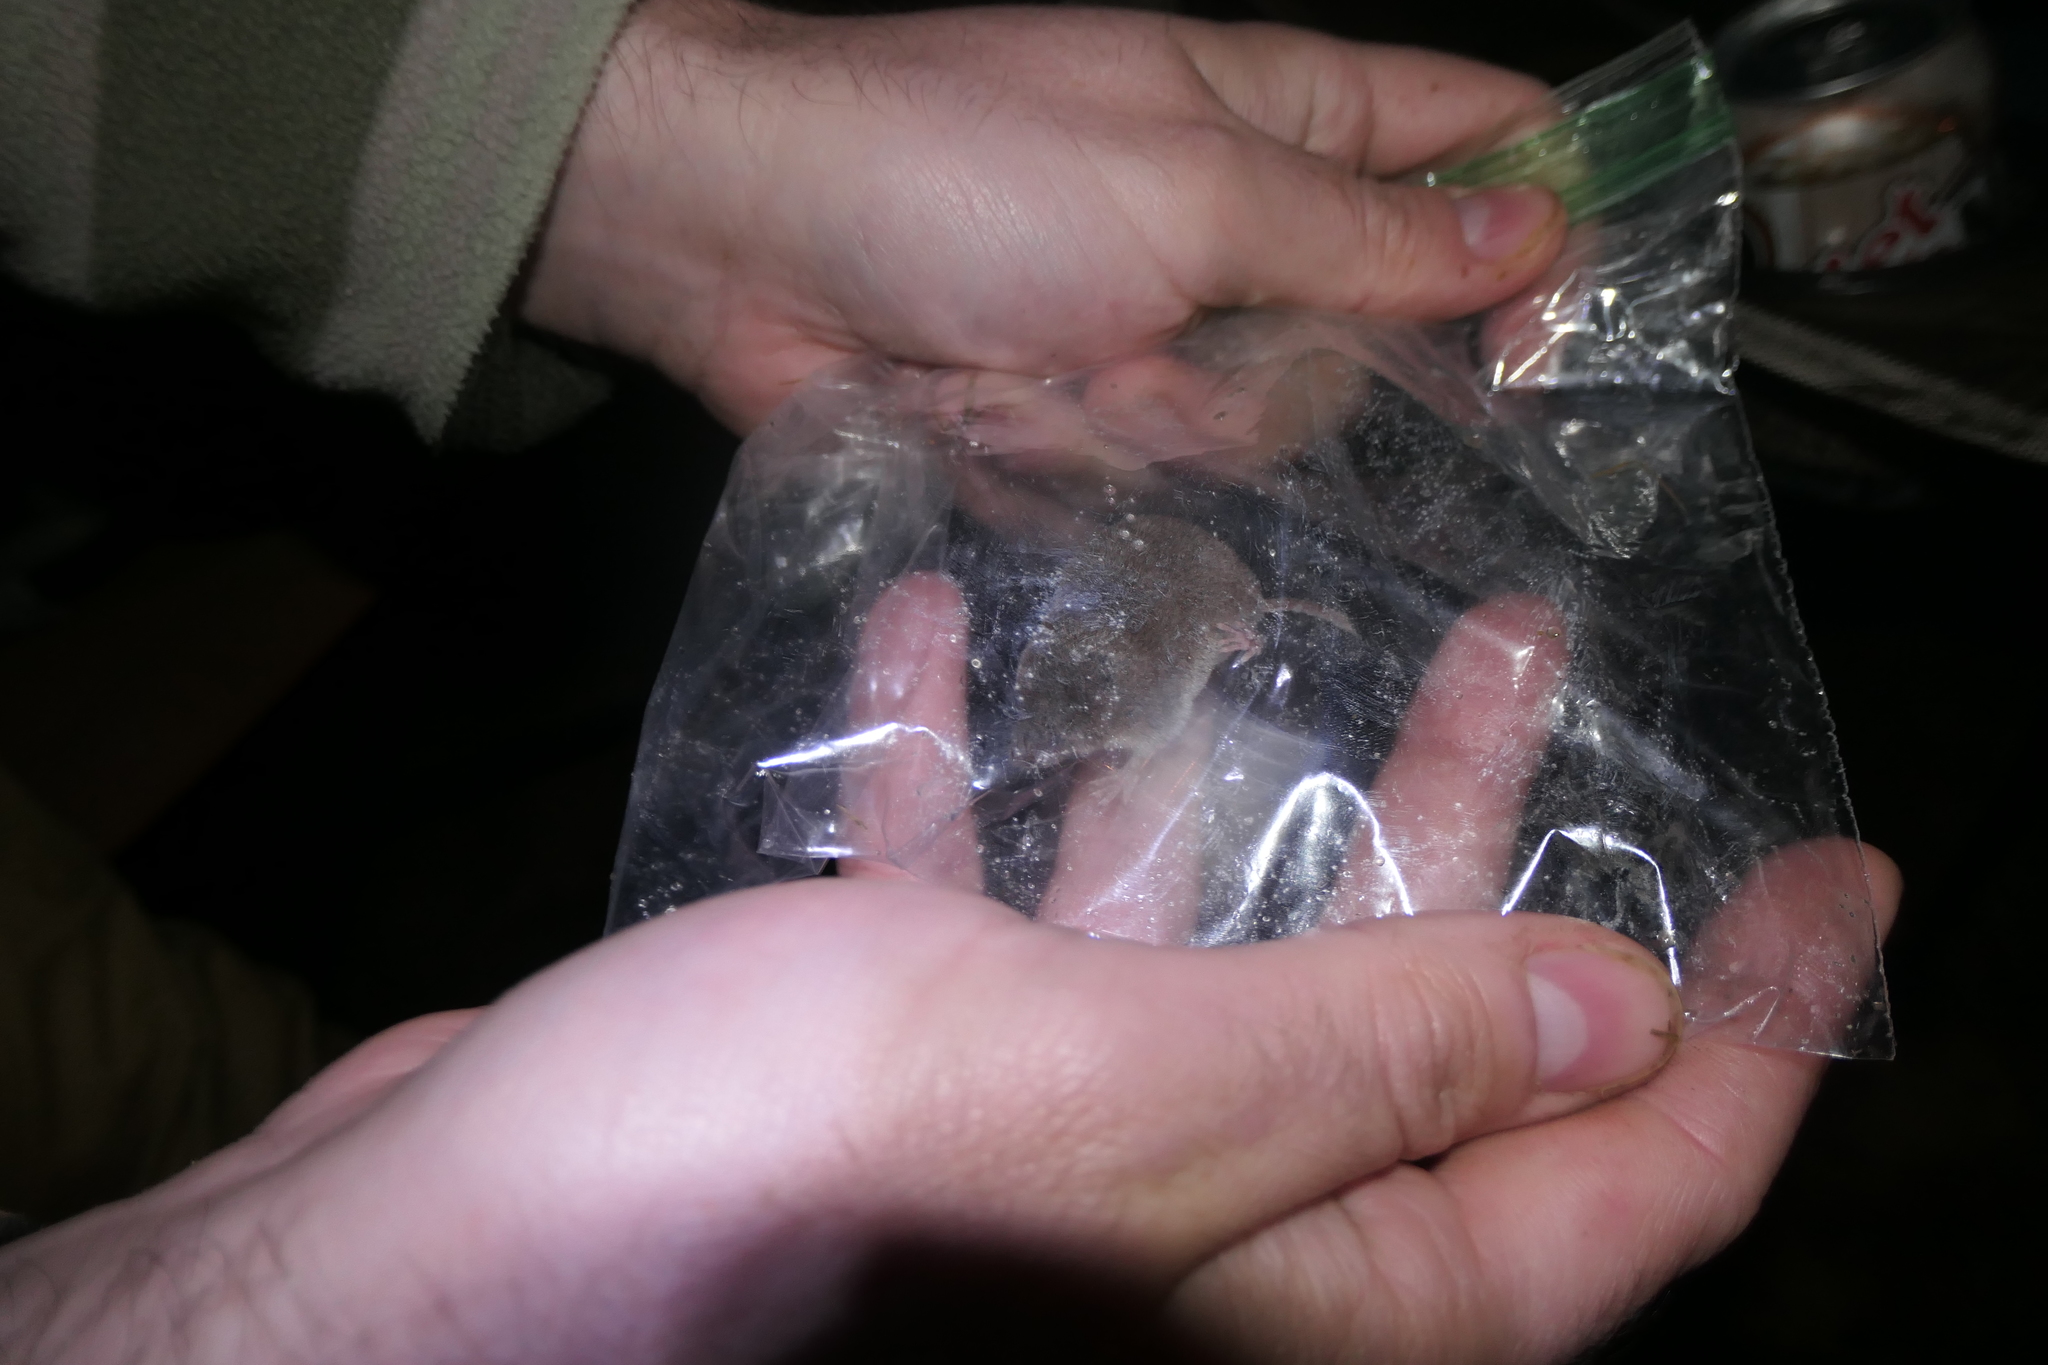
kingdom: Animalia
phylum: Chordata
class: Mammalia
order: Soricomorpha
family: Soricidae
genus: Cryptotis
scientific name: Cryptotis parva
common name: North american least shrew
